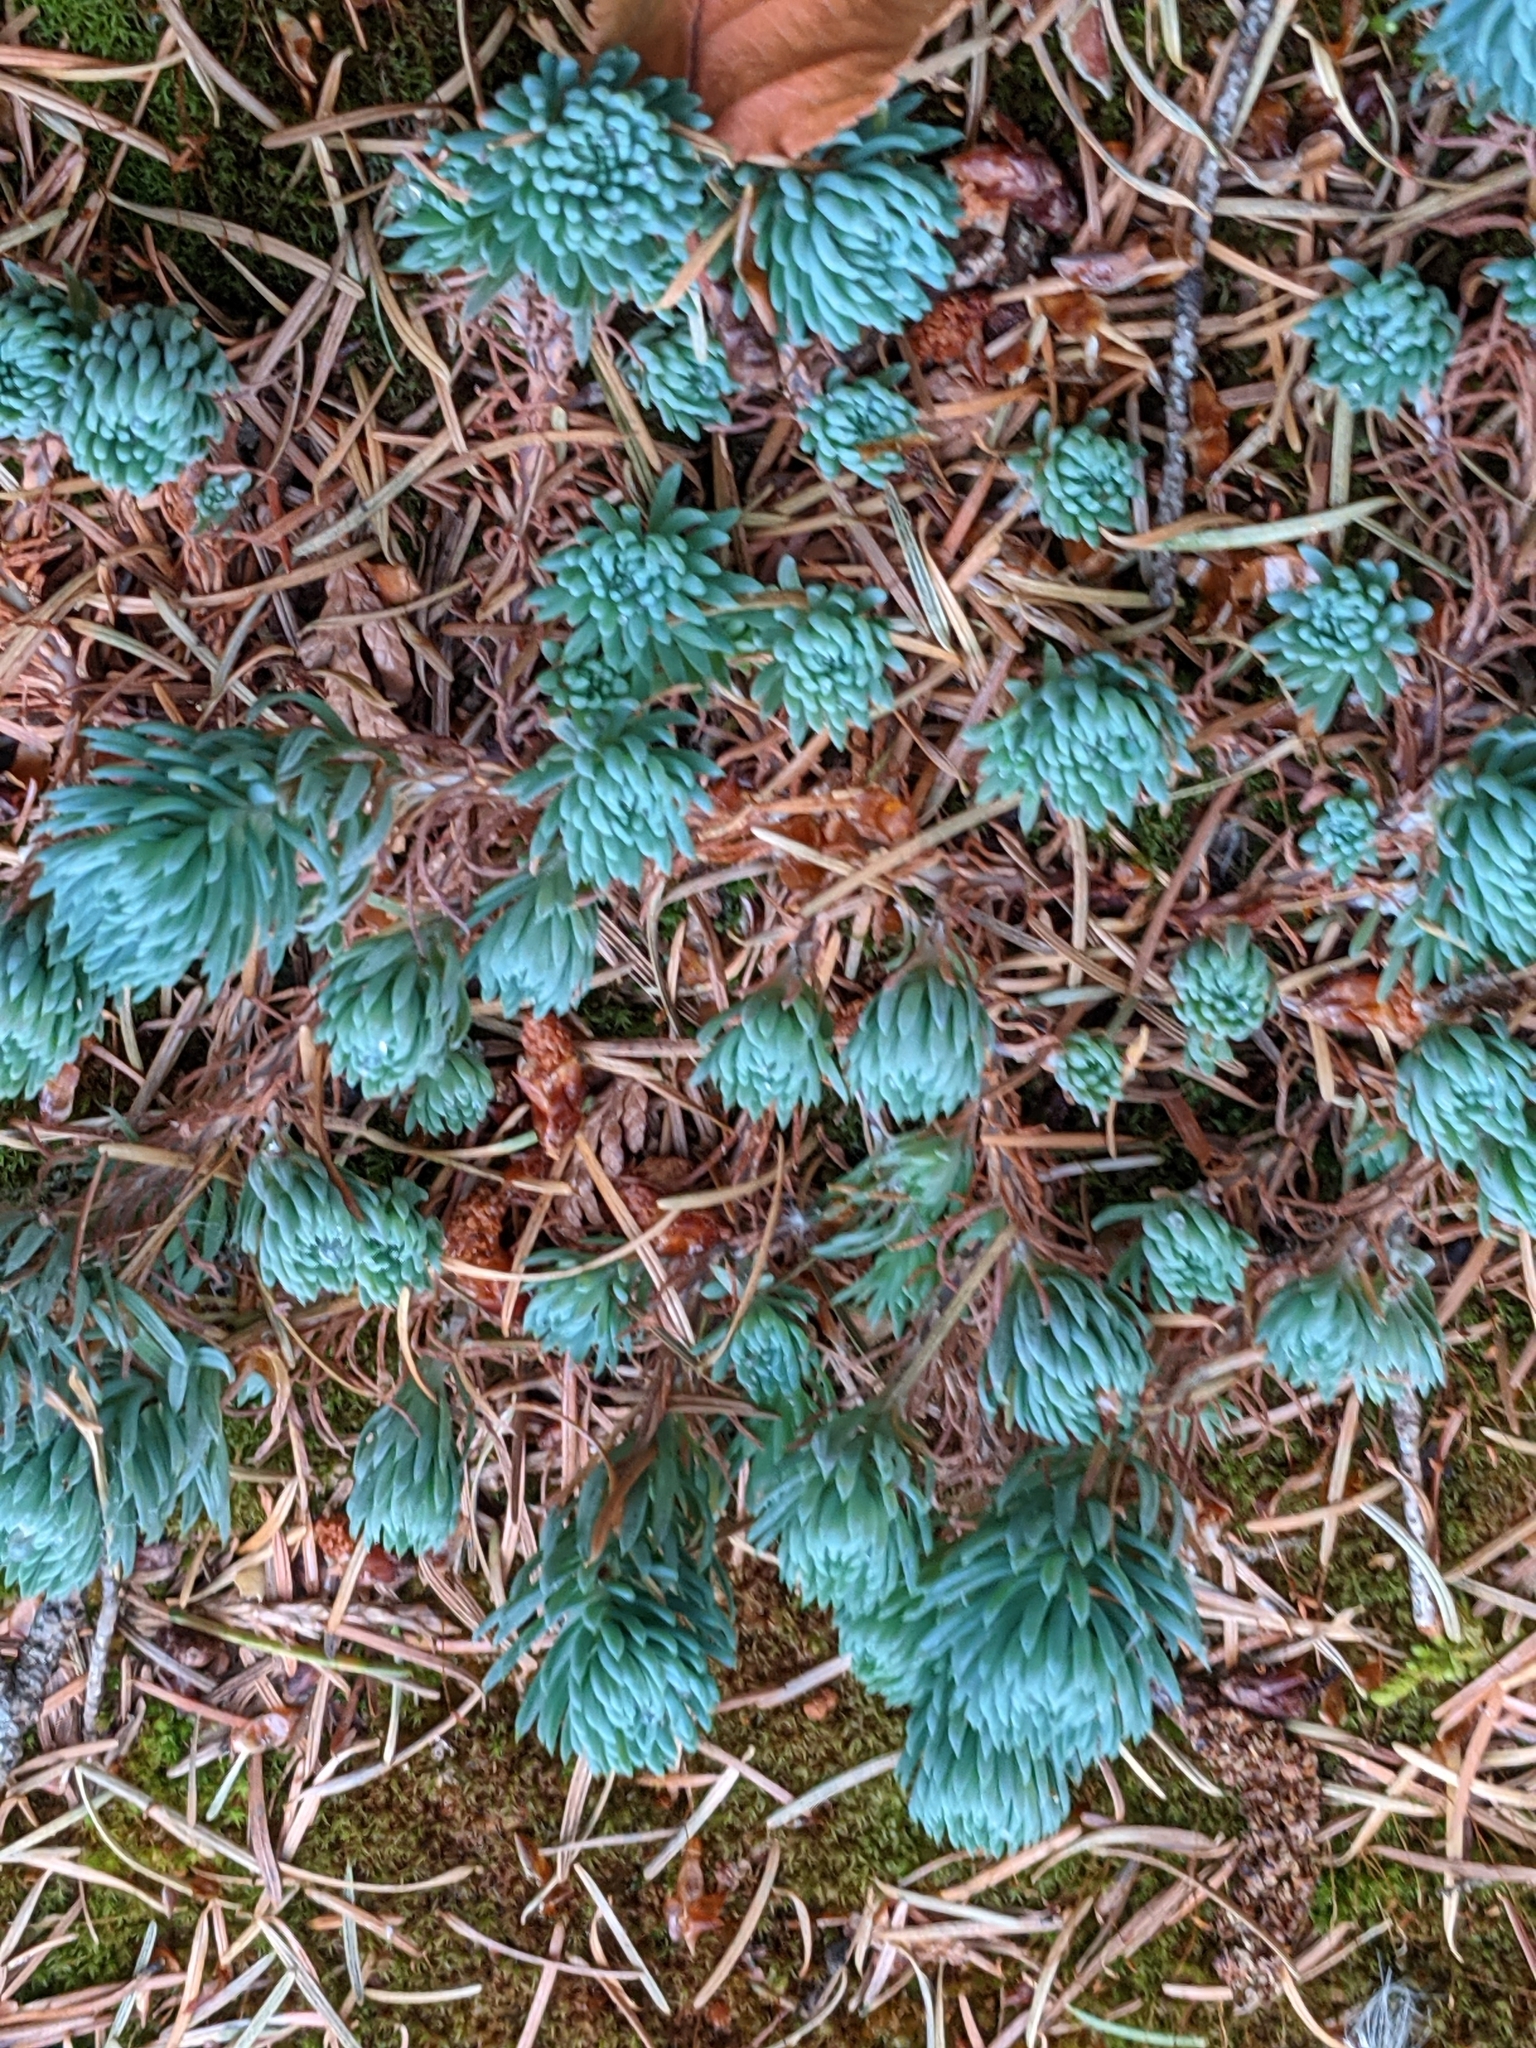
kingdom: Plantae
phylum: Tracheophyta
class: Magnoliopsida
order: Saxifragales
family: Crassulaceae
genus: Petrosedum
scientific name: Petrosedum forsterianum
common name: Forster's stonecrop
